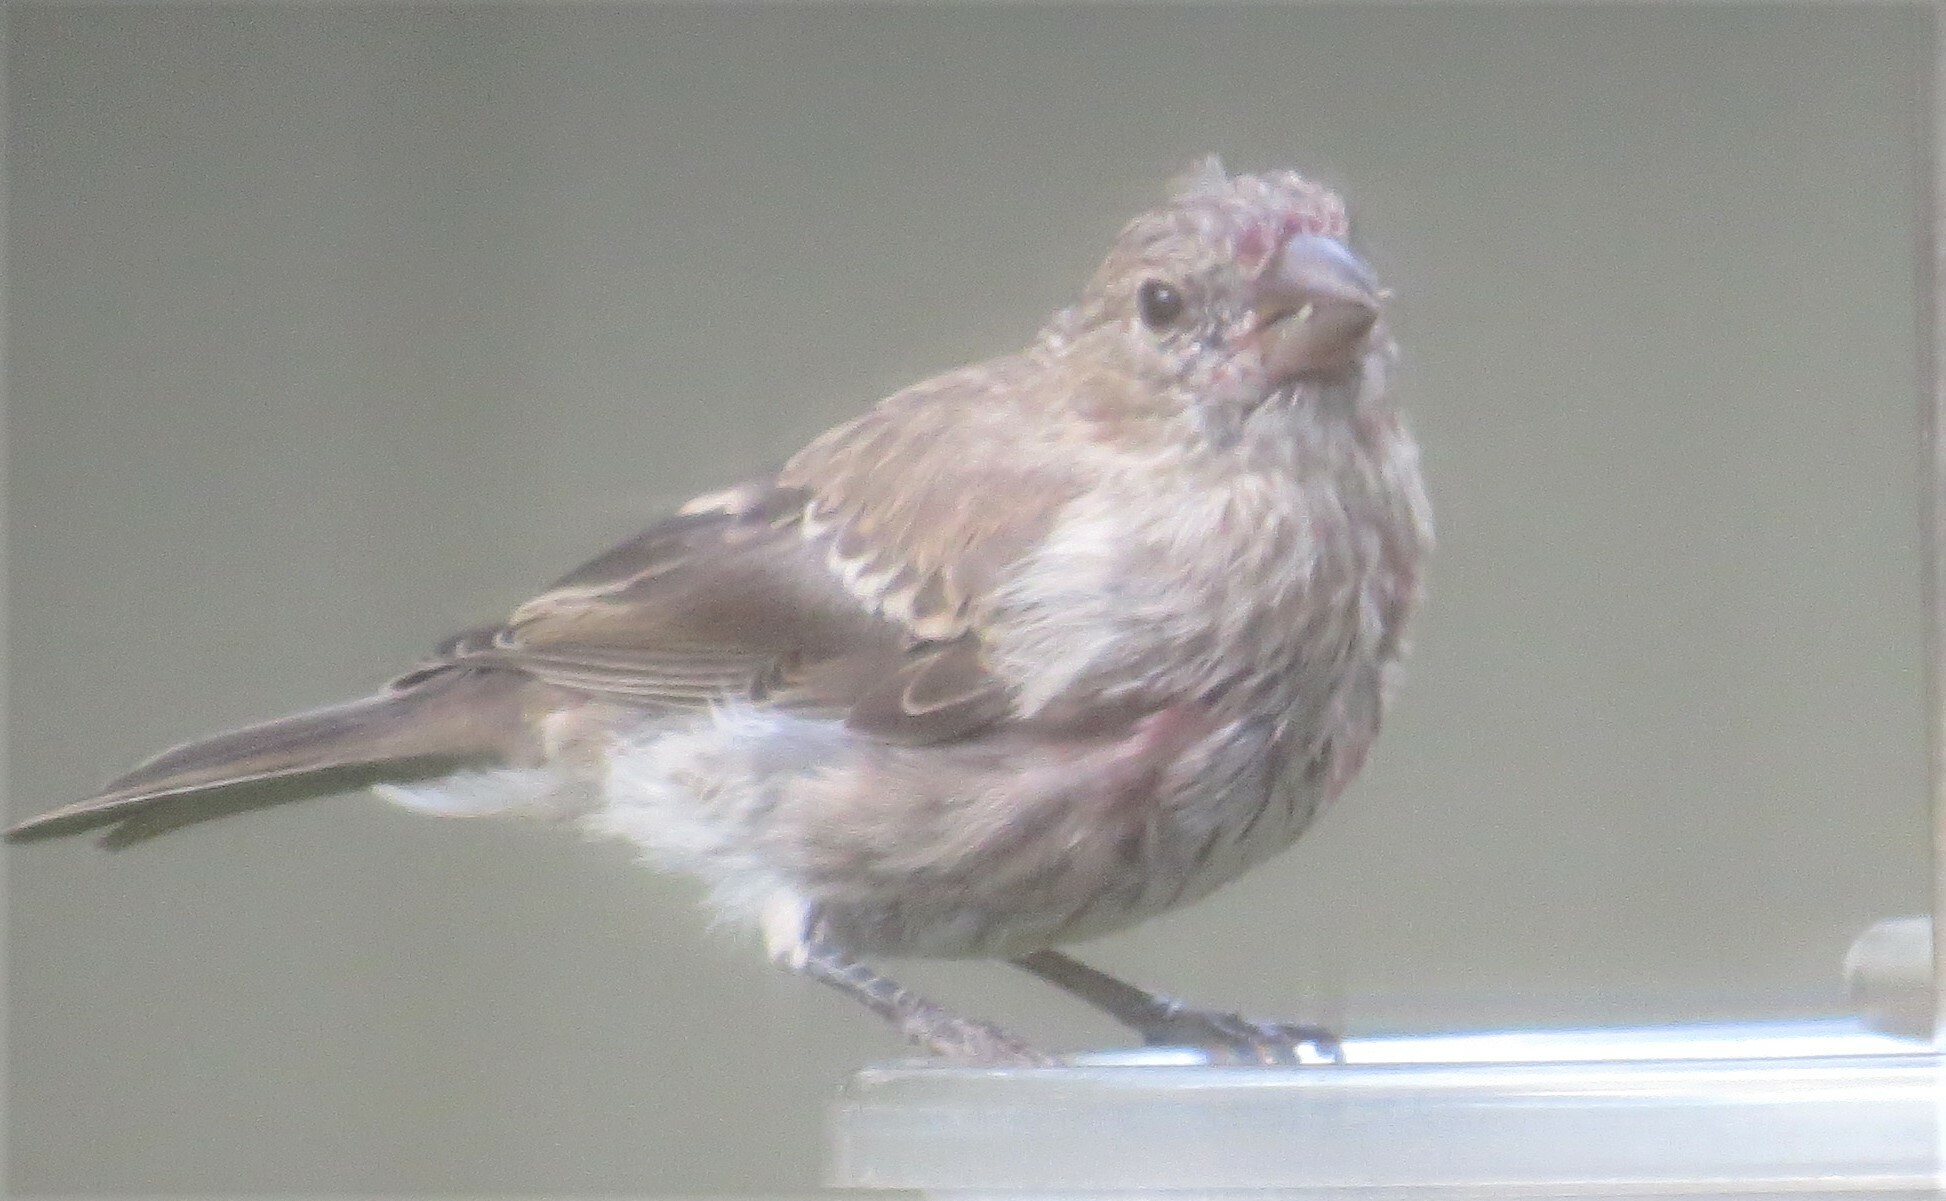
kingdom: Animalia
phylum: Chordata
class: Aves
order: Passeriformes
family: Fringillidae
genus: Haemorhous
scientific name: Haemorhous mexicanus
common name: House finch
